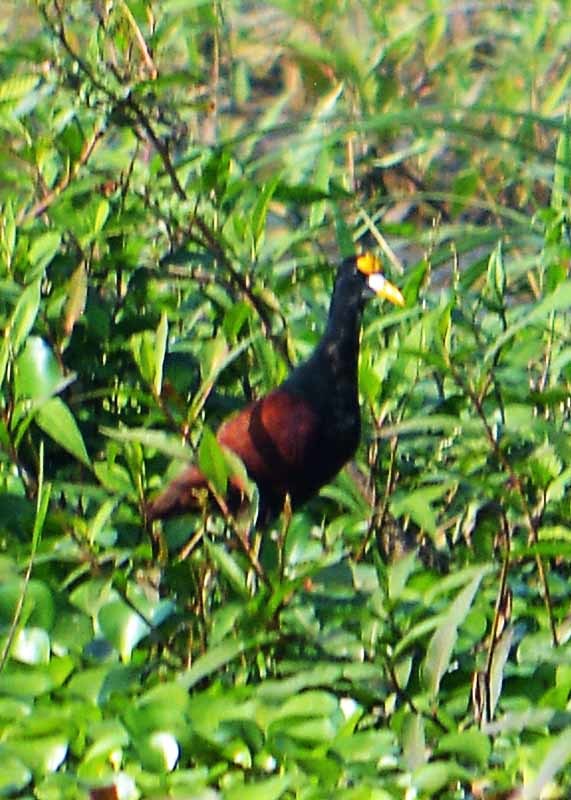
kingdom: Animalia
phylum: Chordata
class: Aves
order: Charadriiformes
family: Jacanidae
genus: Jacana
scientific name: Jacana spinosa
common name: Northern jacana
